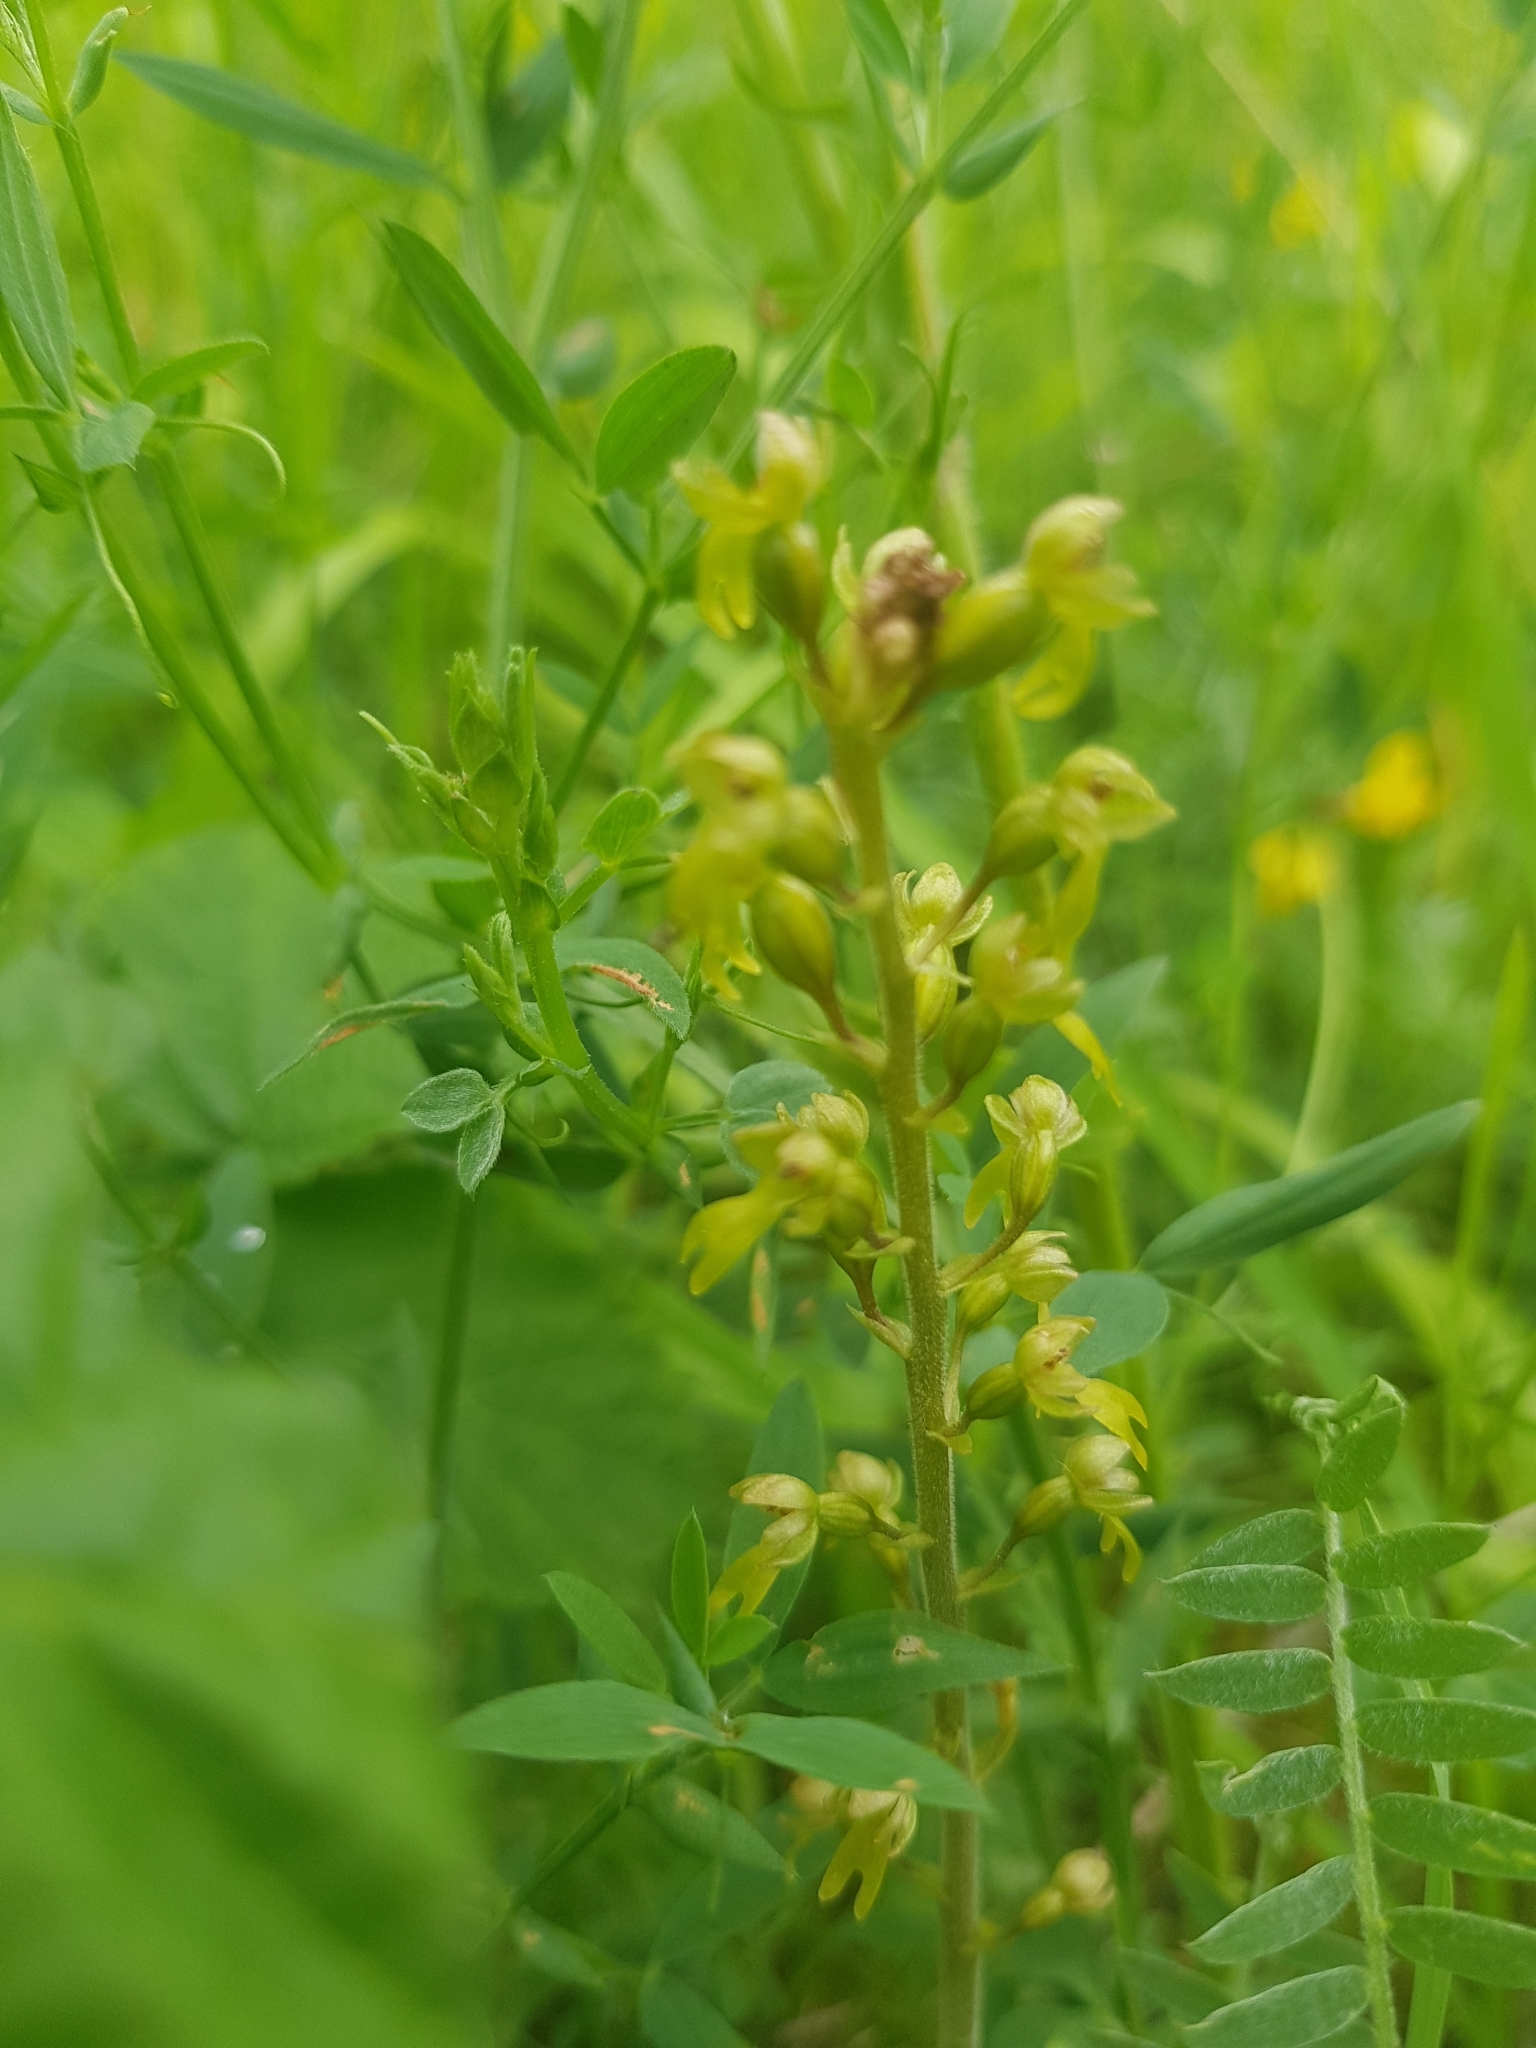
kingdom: Plantae
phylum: Tracheophyta
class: Liliopsida
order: Asparagales
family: Orchidaceae
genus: Neottia
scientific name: Neottia ovata
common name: Common twayblade
